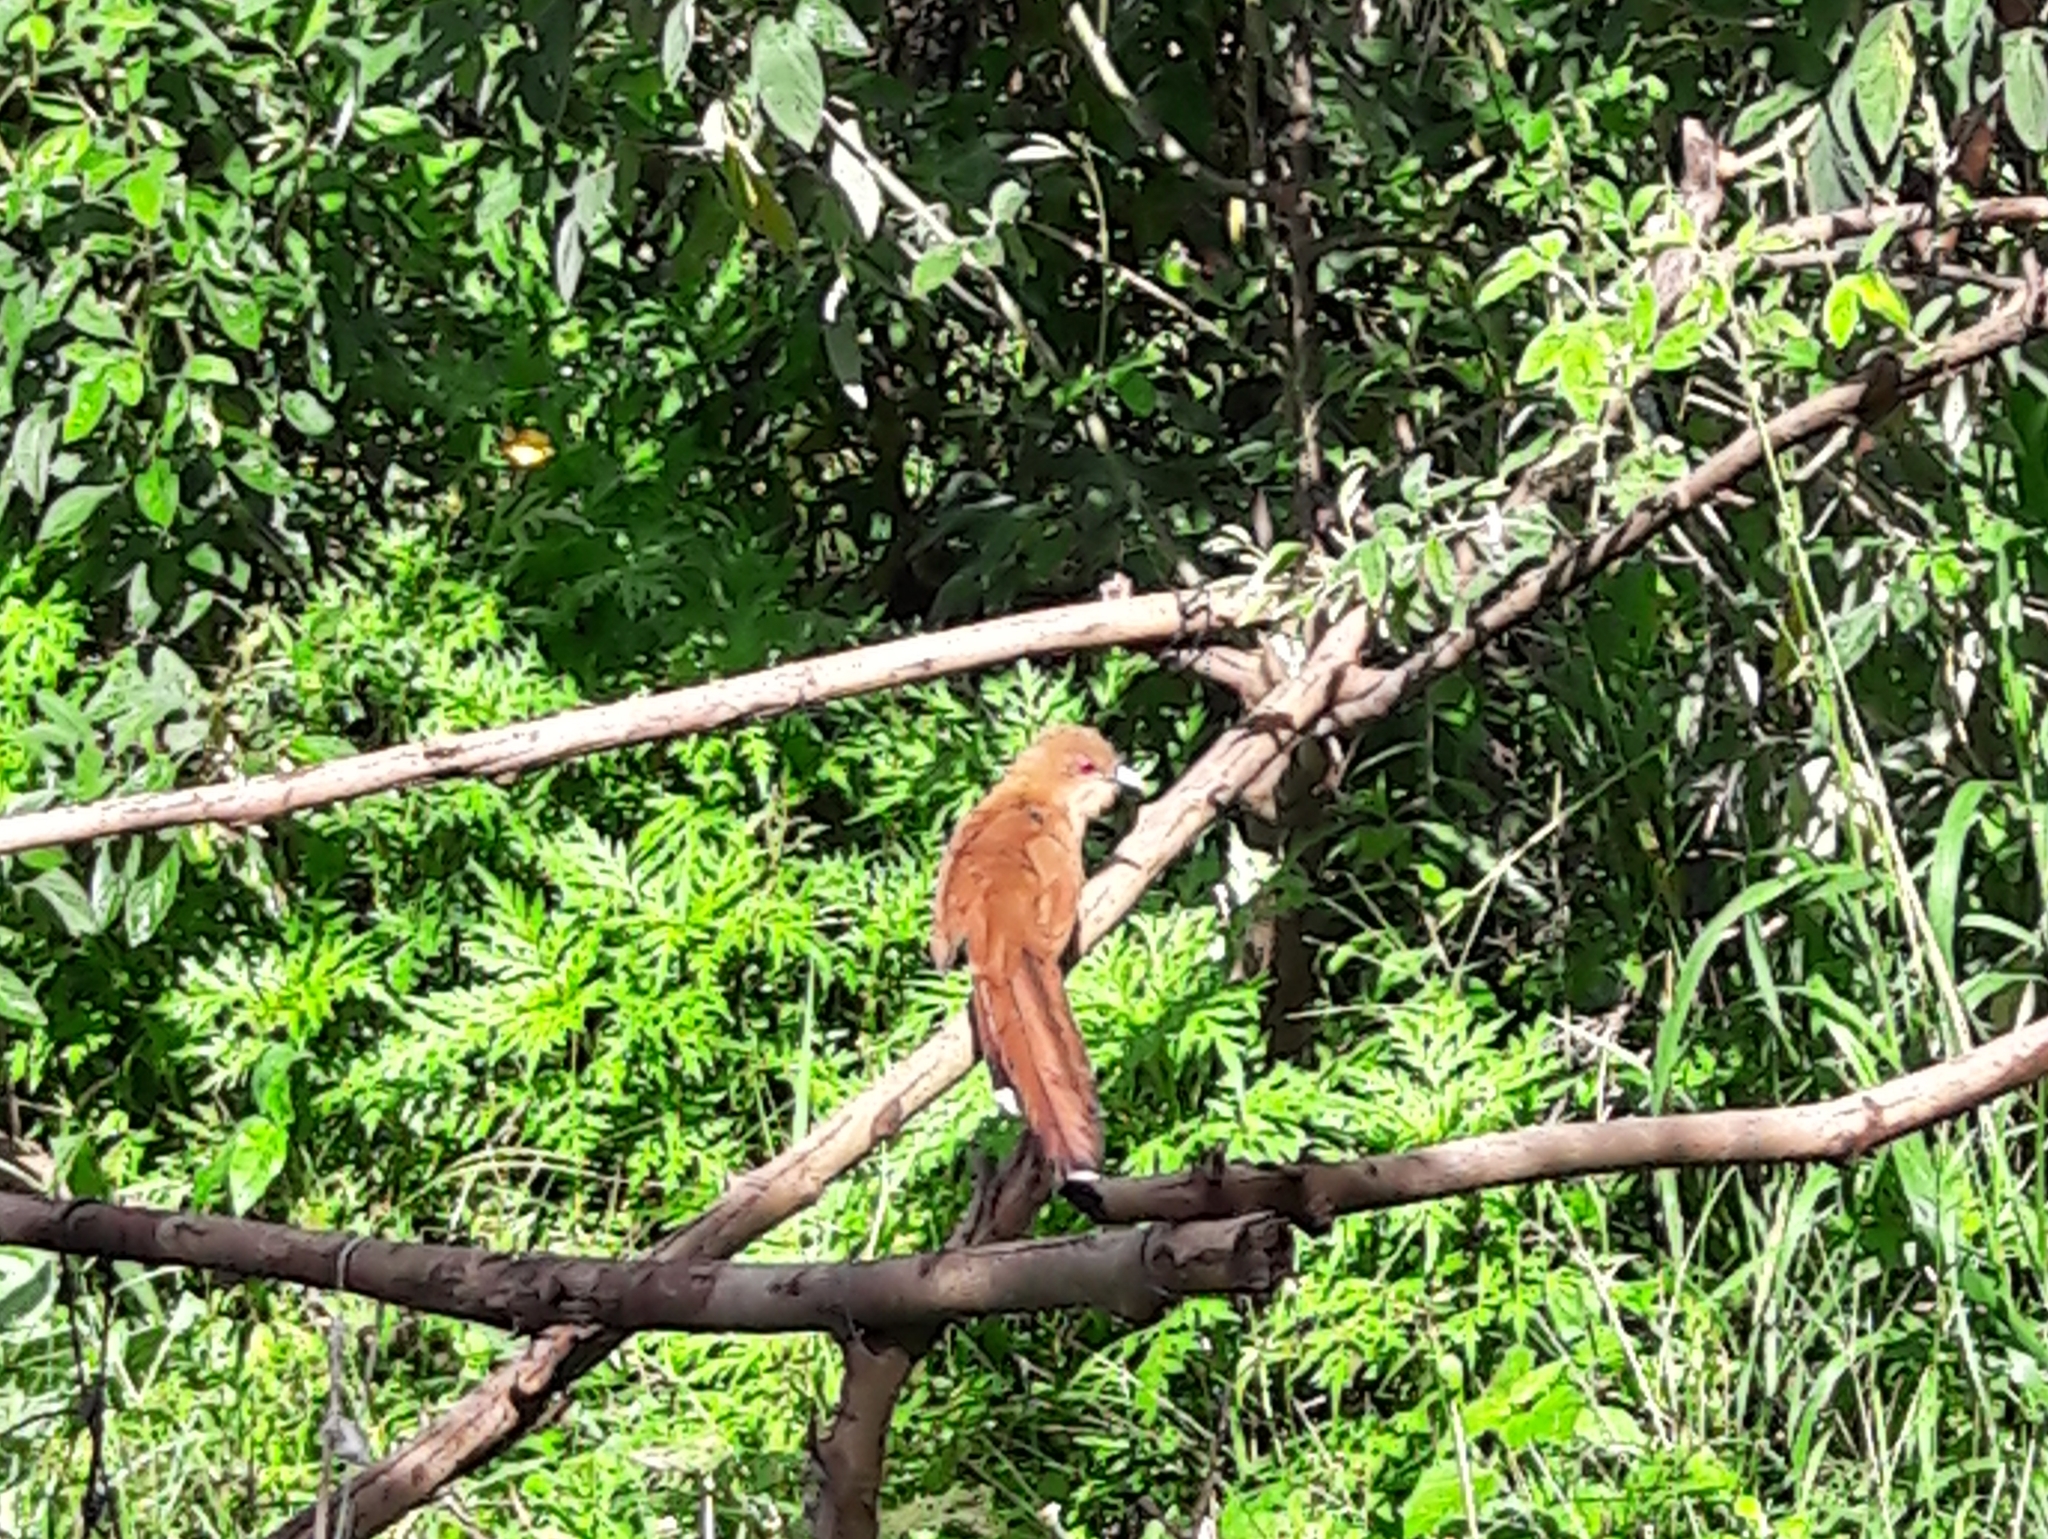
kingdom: Animalia
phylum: Chordata
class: Aves
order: Cuculiformes
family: Cuculidae
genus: Piaya
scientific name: Piaya cayana
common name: Squirrel cuckoo
